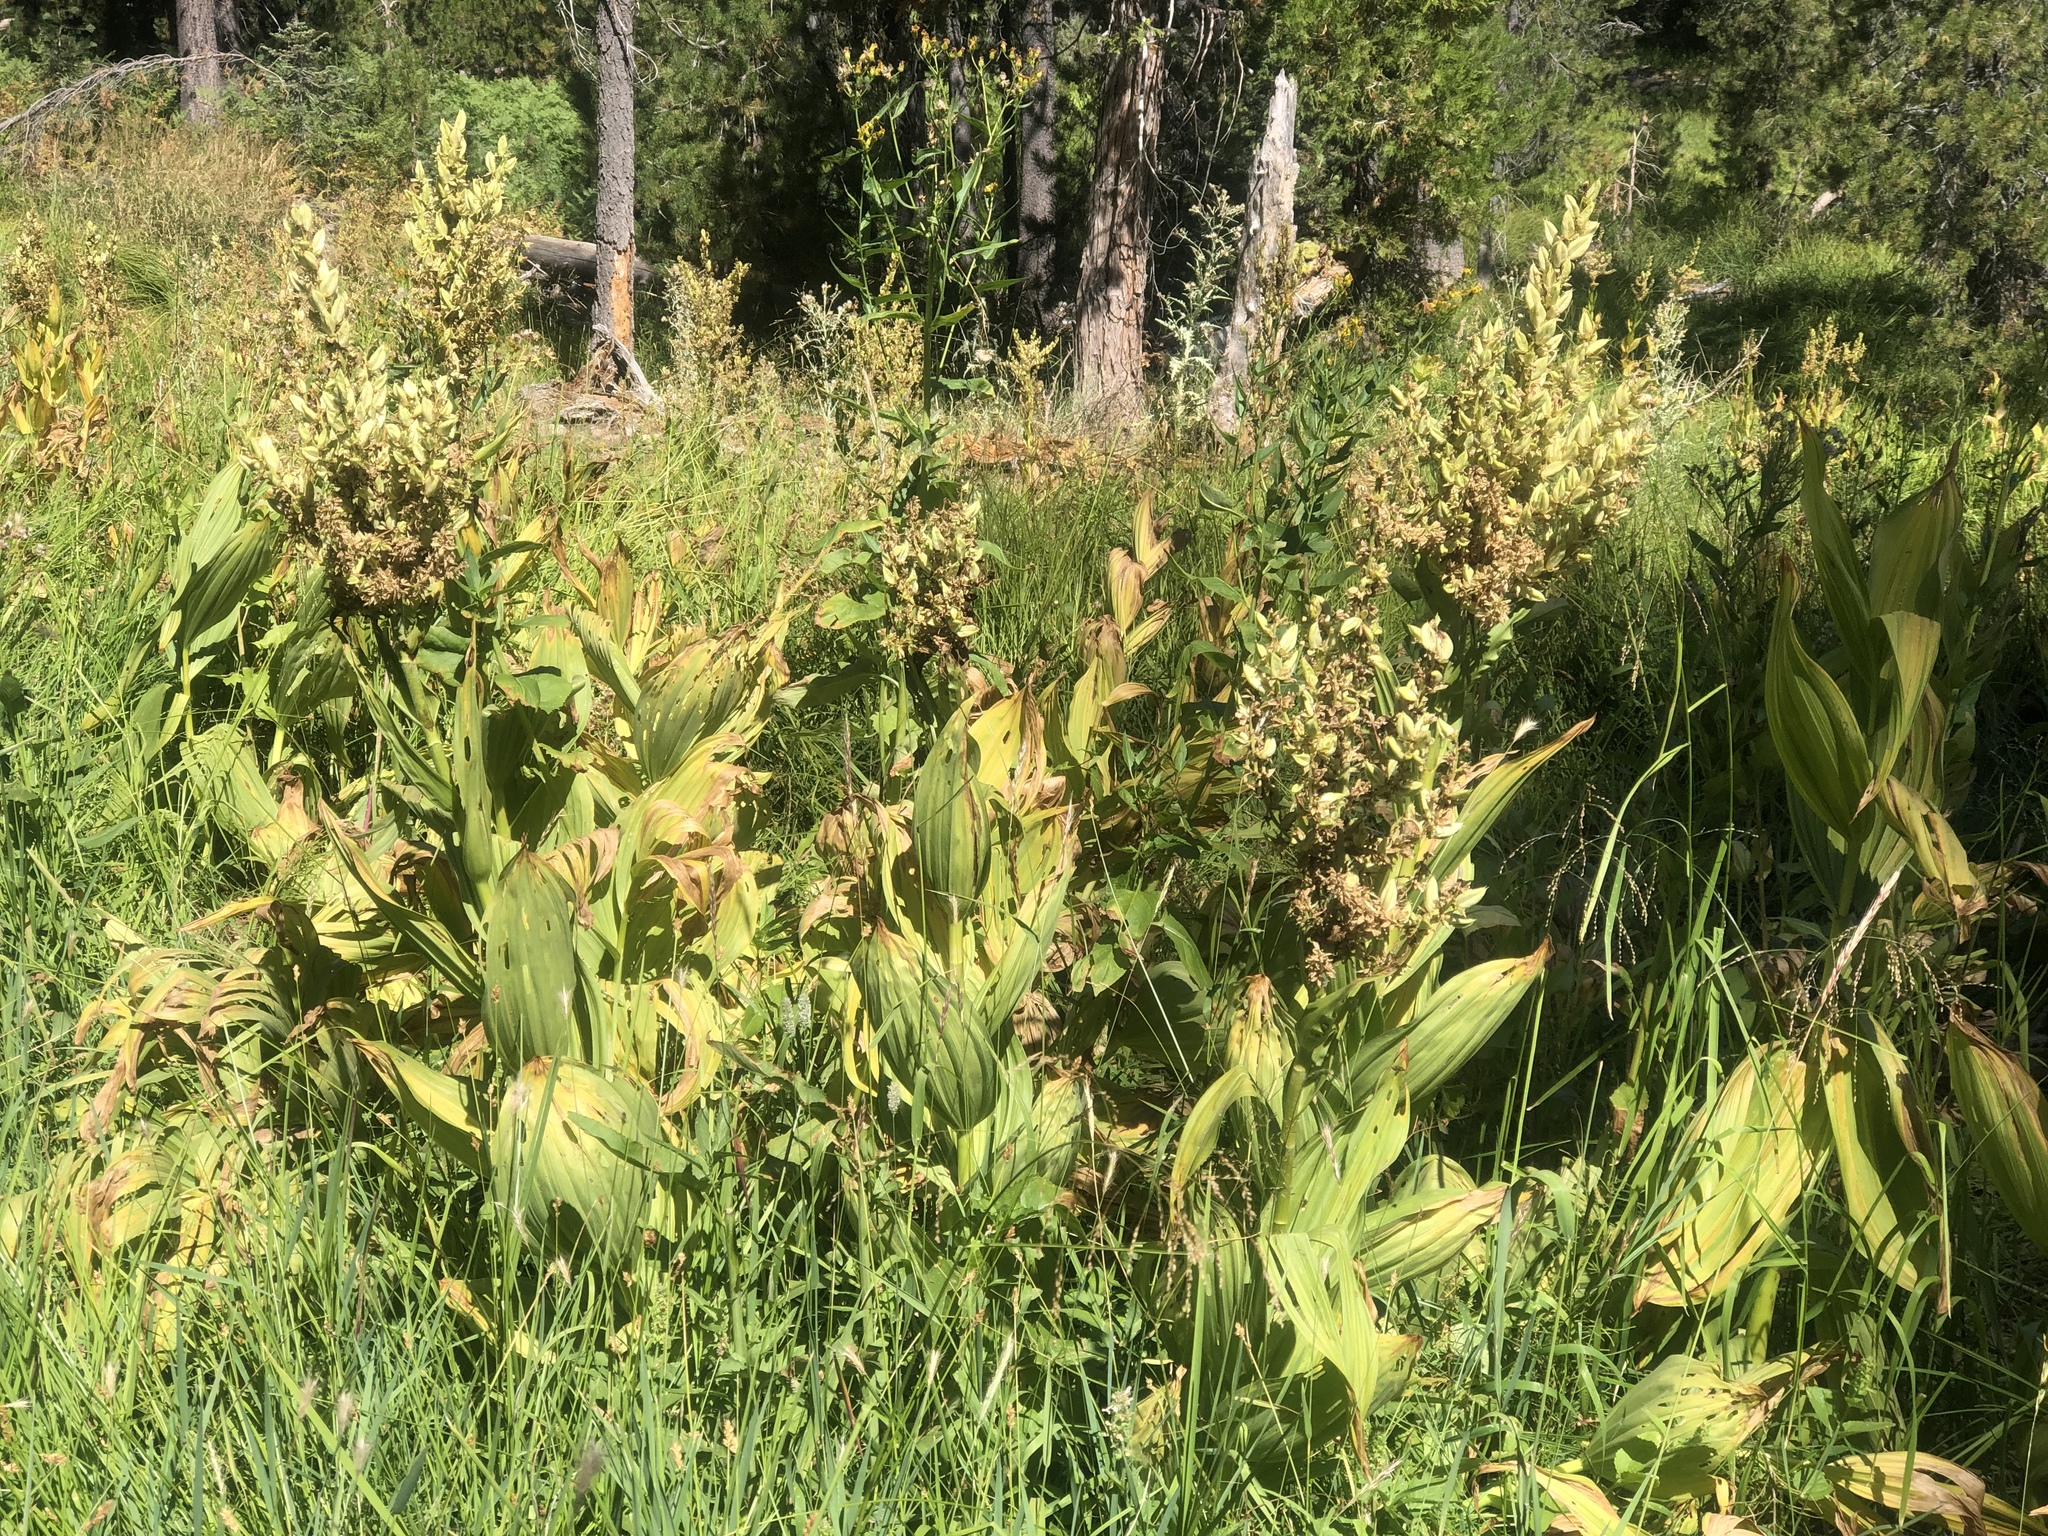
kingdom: Plantae
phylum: Tracheophyta
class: Liliopsida
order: Liliales
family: Melanthiaceae
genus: Veratrum
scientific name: Veratrum californicum
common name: California veratrum
